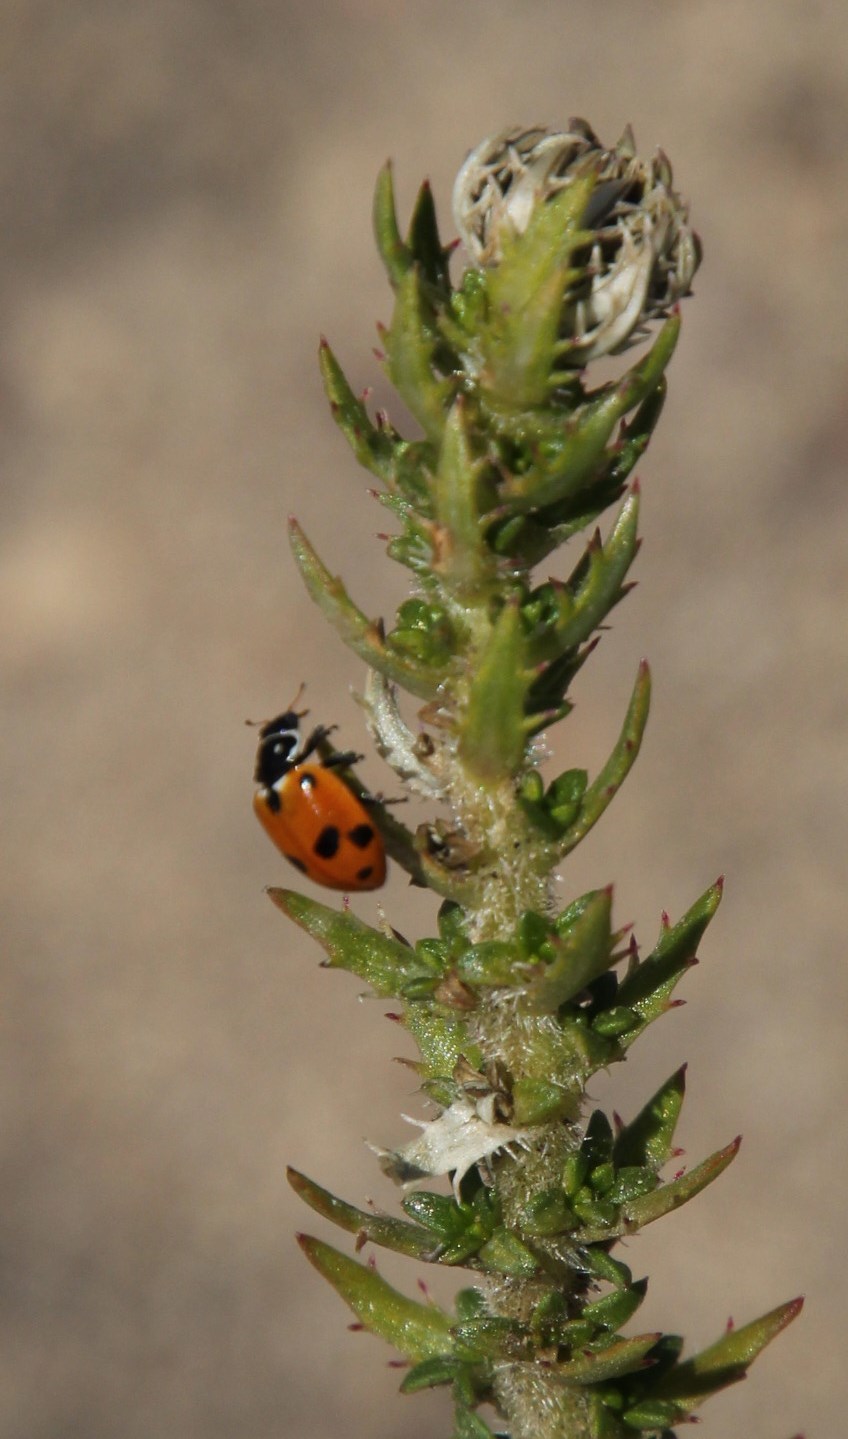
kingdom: Animalia
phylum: Arthropoda
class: Insecta
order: Coleoptera
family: Coccinellidae
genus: Hippodamia
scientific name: Hippodamia variegata
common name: Ladybird beetle
